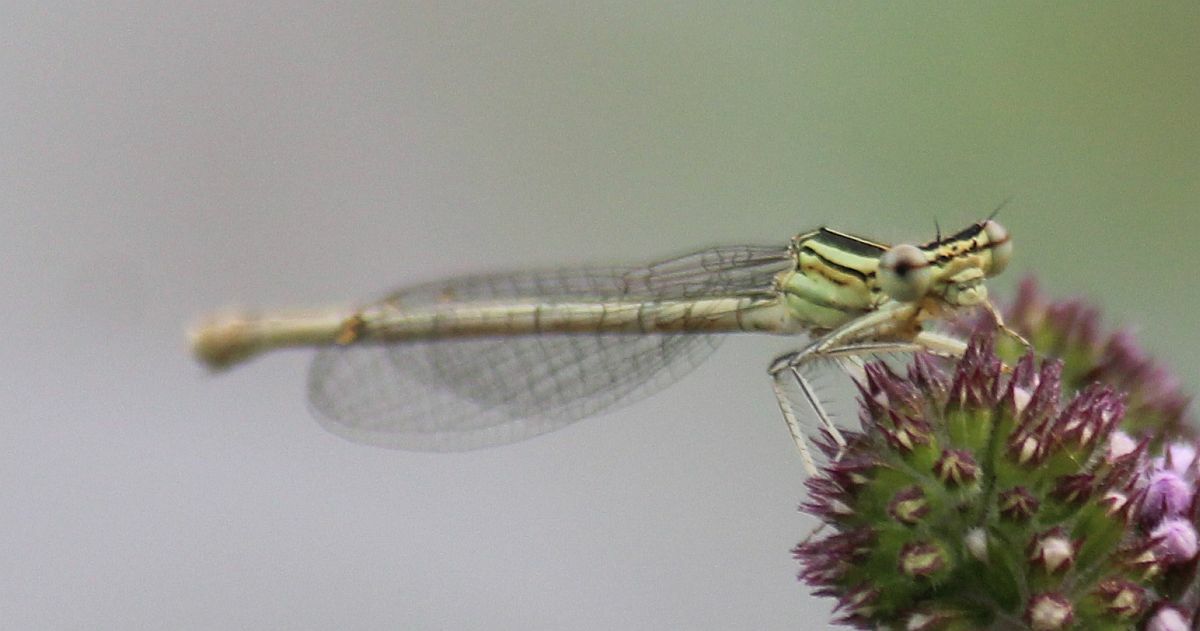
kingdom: Animalia
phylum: Arthropoda
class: Insecta
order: Odonata
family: Platycnemididae
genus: Platycnemis
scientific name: Platycnemis pennipes
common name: White-legged damselfly
